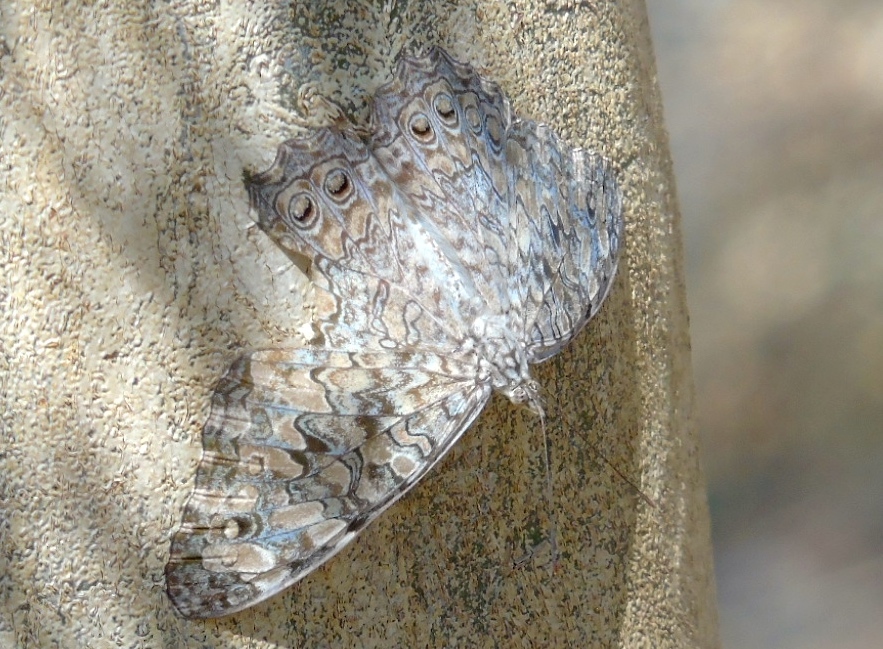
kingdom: Animalia
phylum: Arthropoda
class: Insecta
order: Lepidoptera
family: Nymphalidae
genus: Hamadryas
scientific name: Hamadryas februa
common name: Gray cracker
